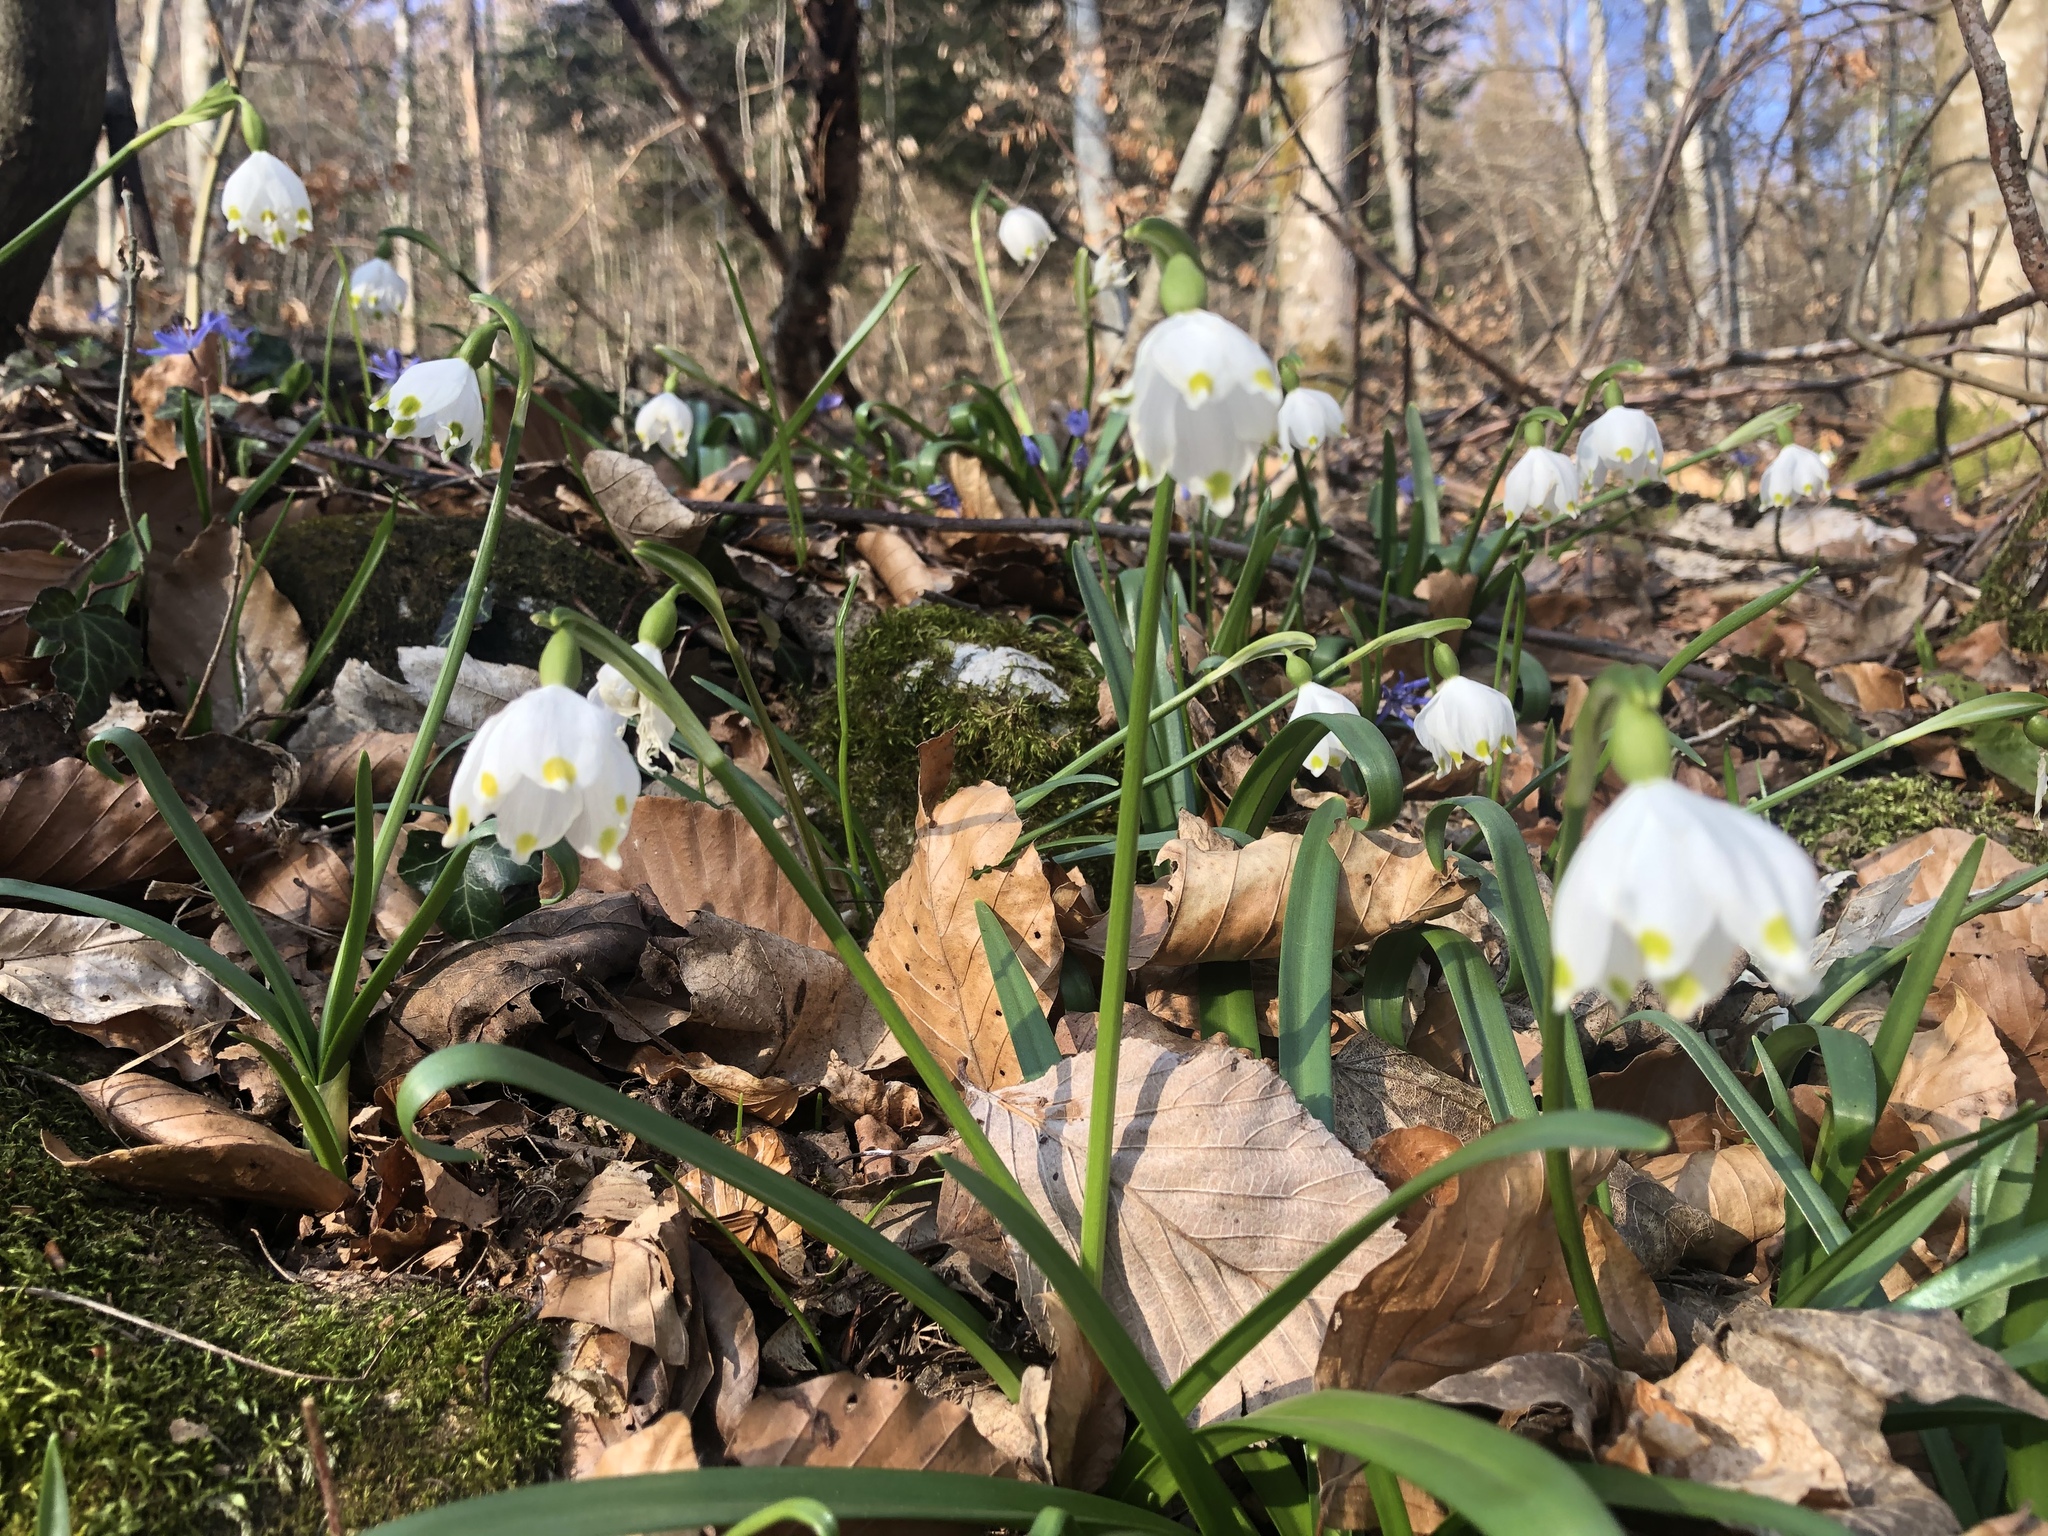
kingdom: Plantae
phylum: Tracheophyta
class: Liliopsida
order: Asparagales
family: Amaryllidaceae
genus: Leucojum
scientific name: Leucojum vernum
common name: Spring snowflake
